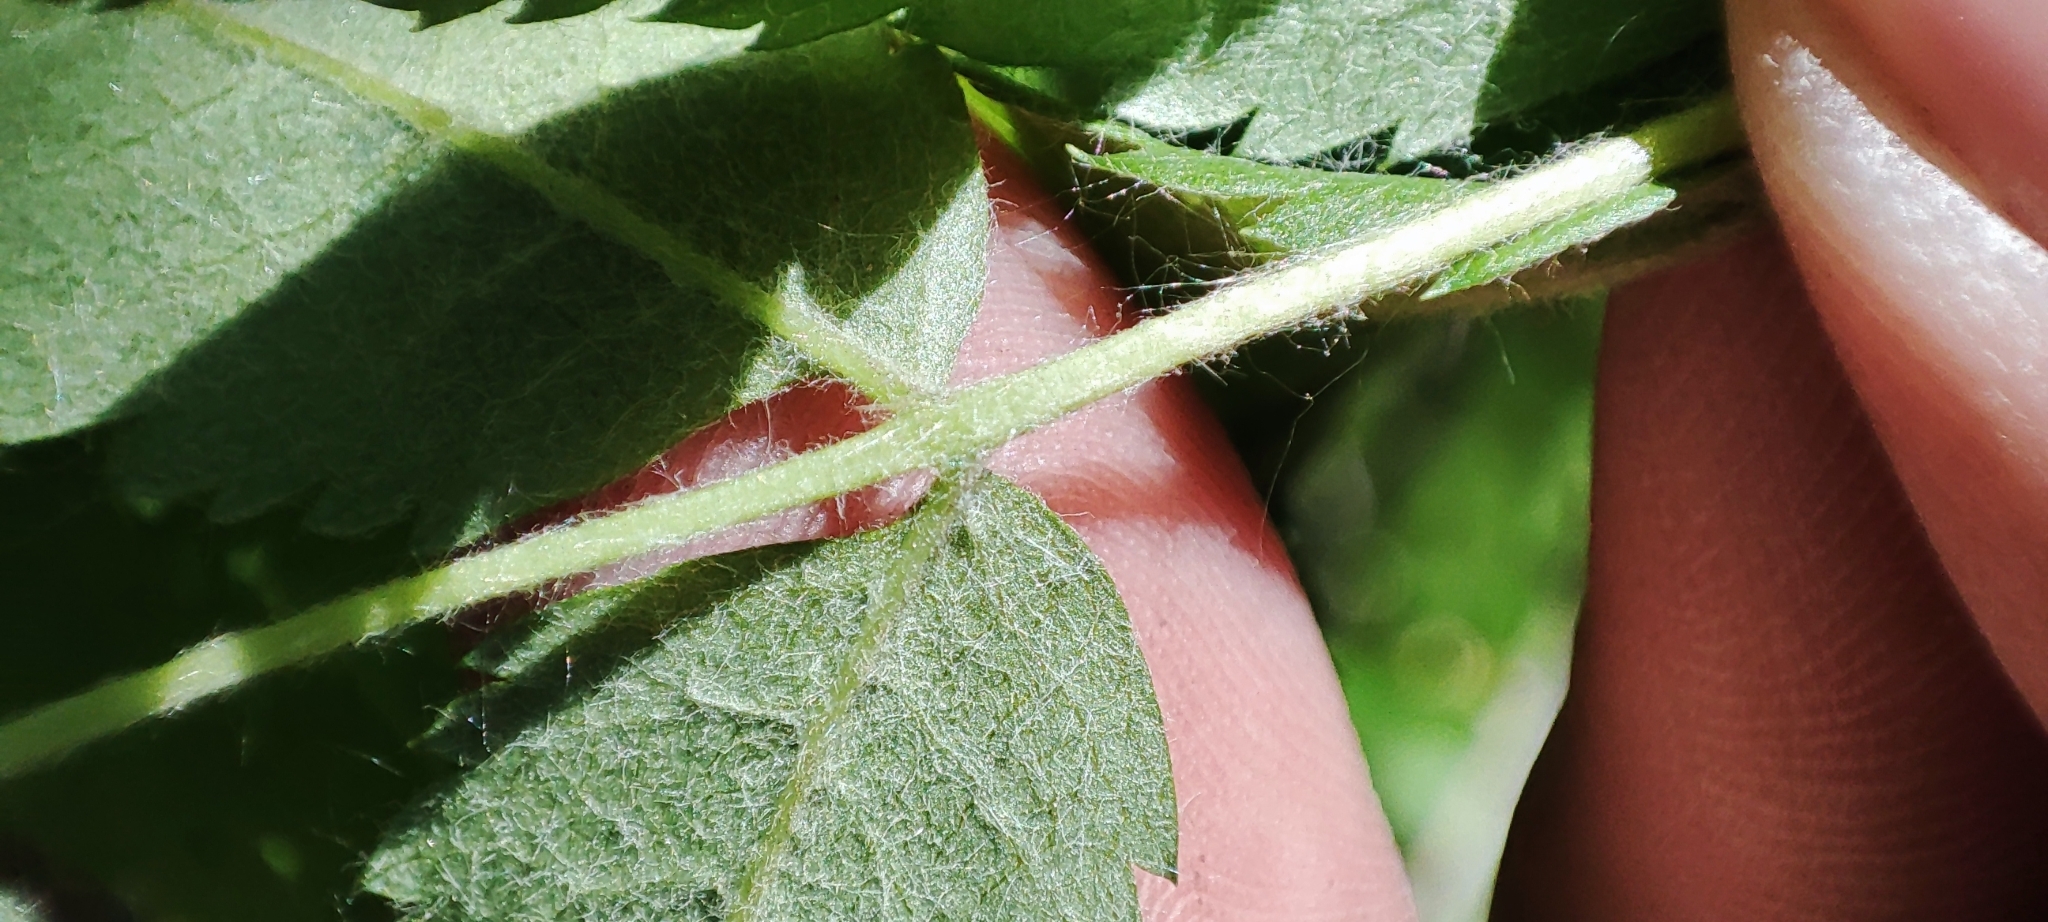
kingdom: Plantae
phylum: Tracheophyta
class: Magnoliopsida
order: Rosales
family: Rosaceae
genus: Sorbus
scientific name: Sorbus aucuparia
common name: Rowan
